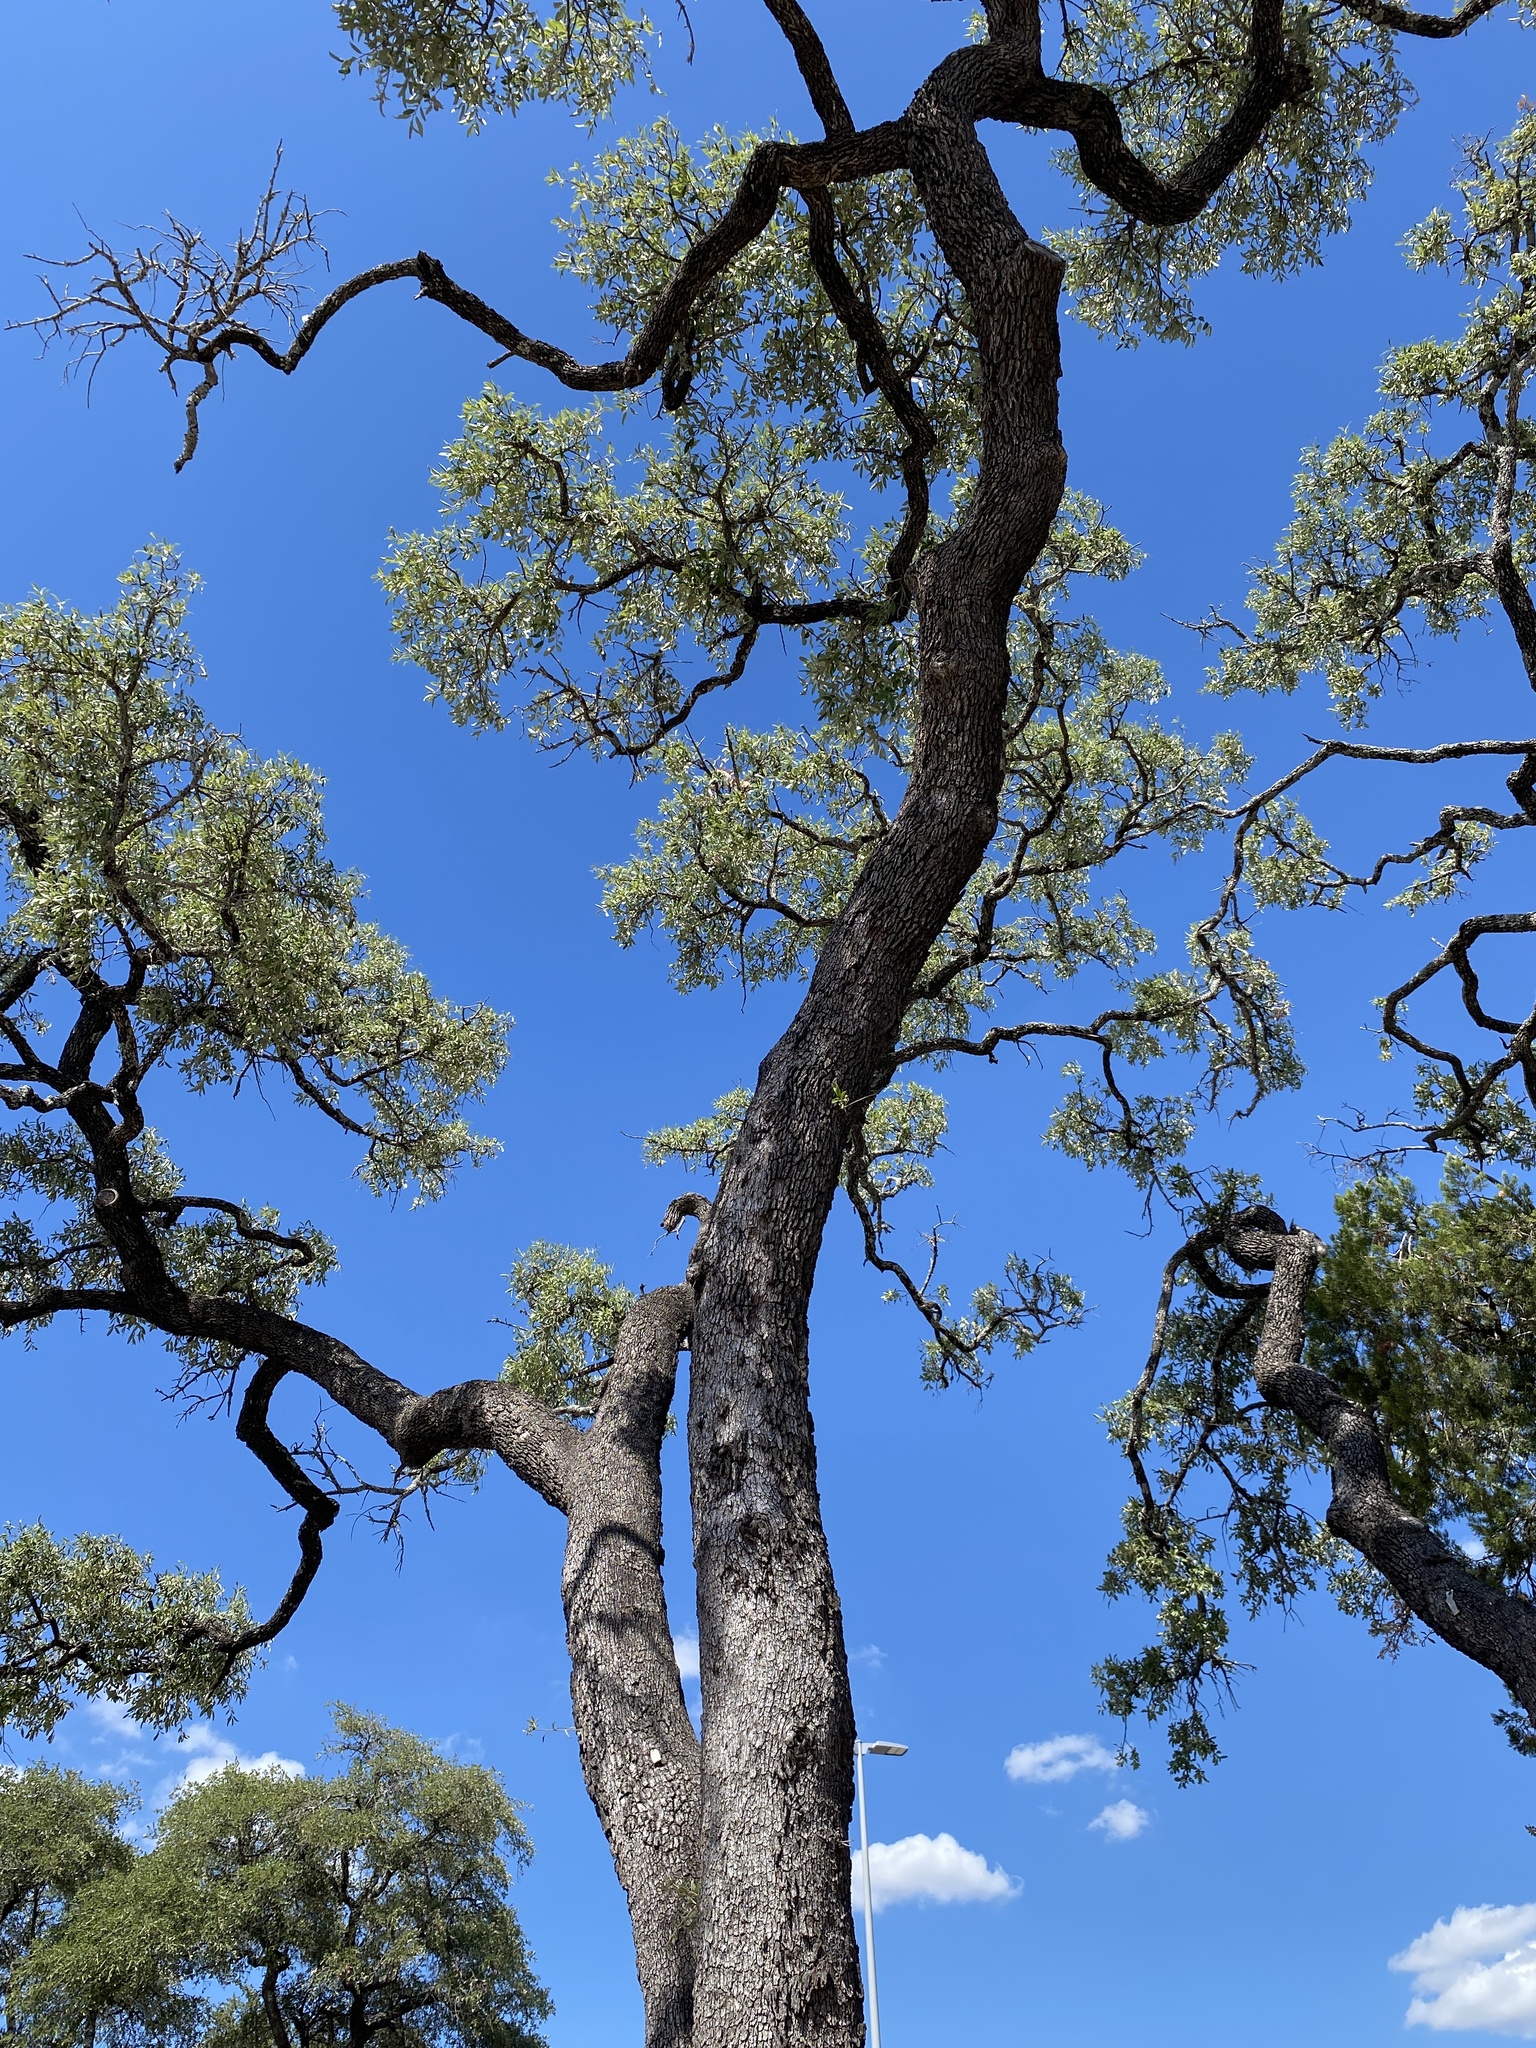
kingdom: Plantae
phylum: Tracheophyta
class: Magnoliopsida
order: Fagales
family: Fagaceae
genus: Quercus
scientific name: Quercus fusiformis
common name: Texas live oak
